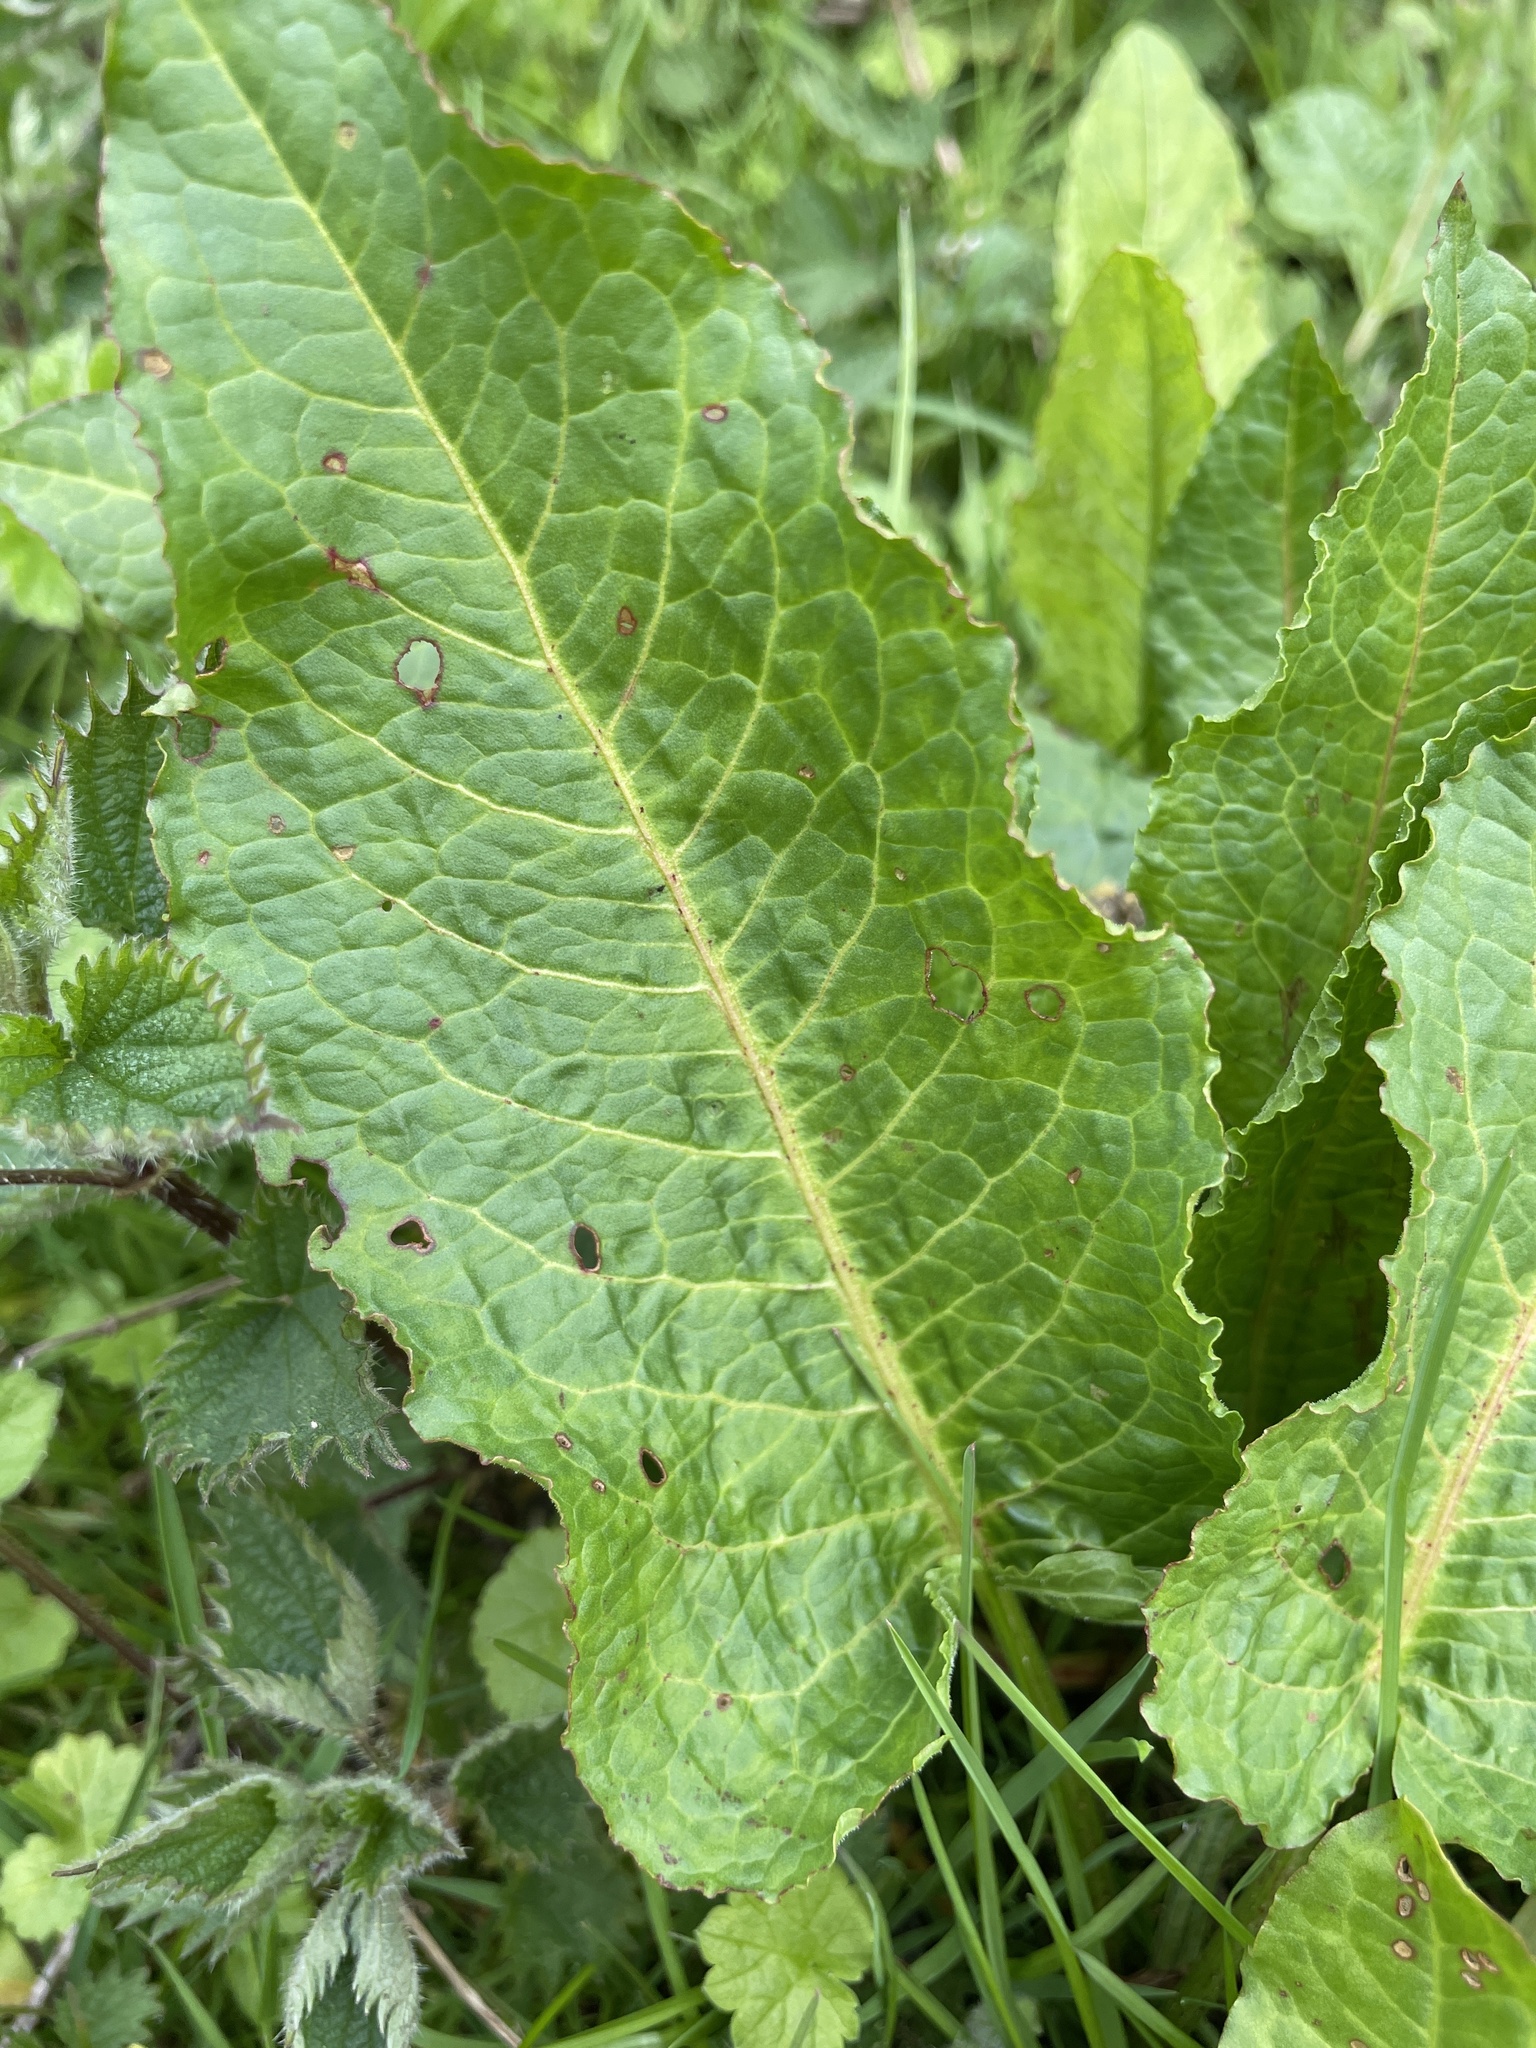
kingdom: Plantae
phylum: Tracheophyta
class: Magnoliopsida
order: Caryophyllales
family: Polygonaceae
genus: Rumex
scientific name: Rumex obtusifolius
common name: Bitter dock
